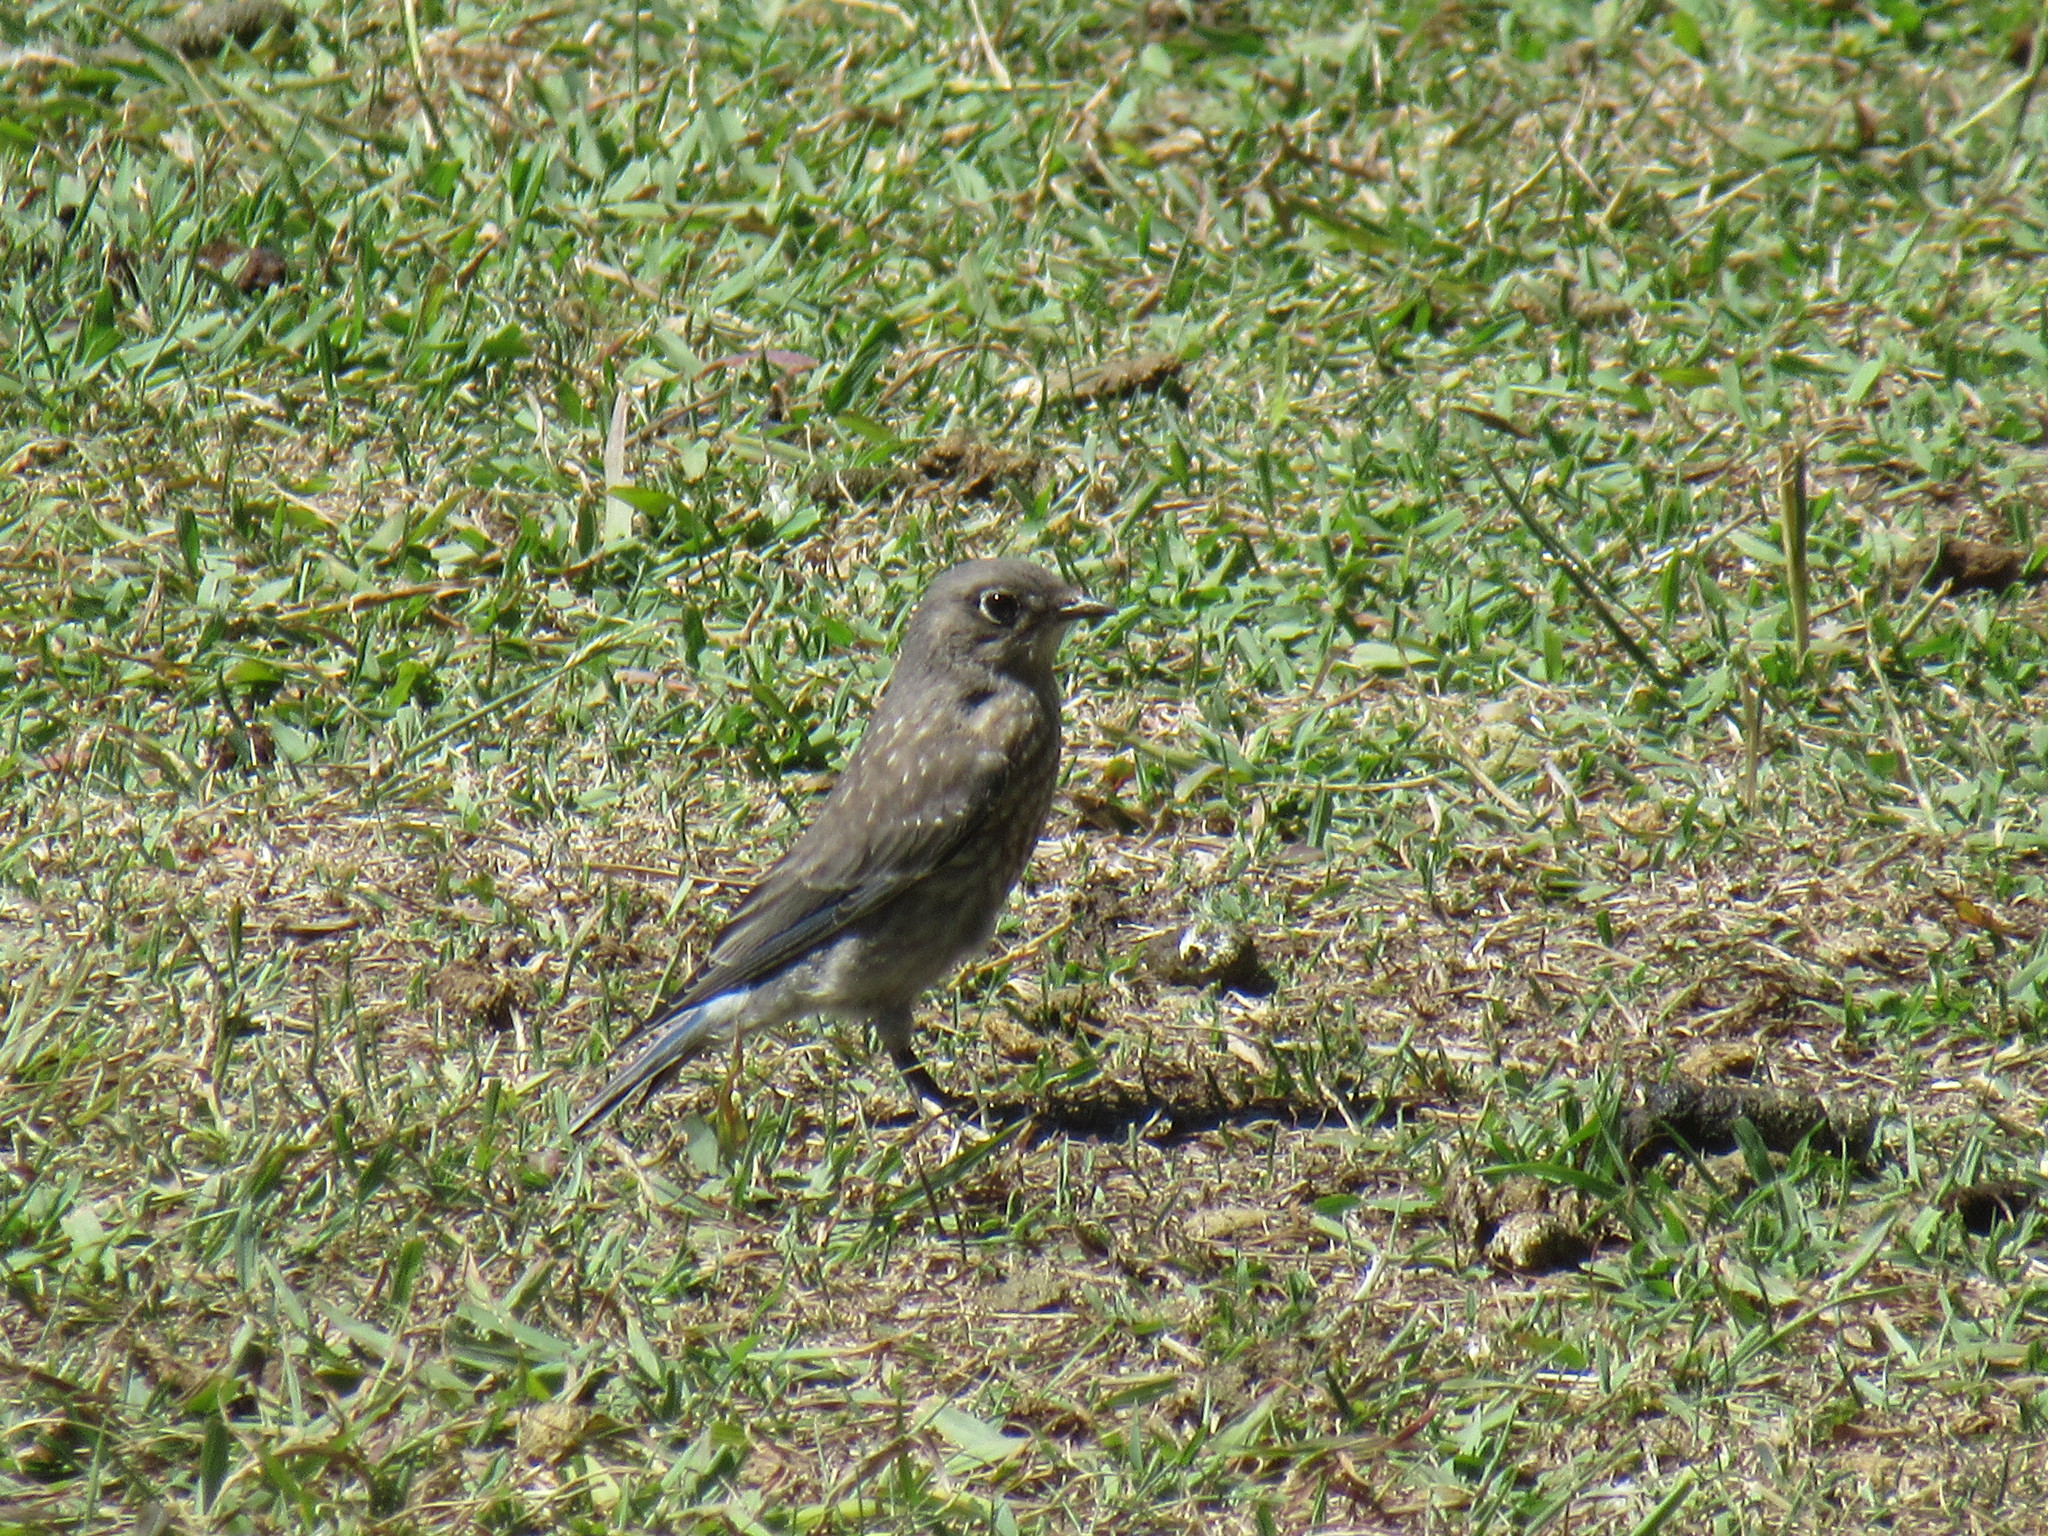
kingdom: Animalia
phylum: Chordata
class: Aves
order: Passeriformes
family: Turdidae
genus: Sialia
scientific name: Sialia mexicana
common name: Western bluebird
